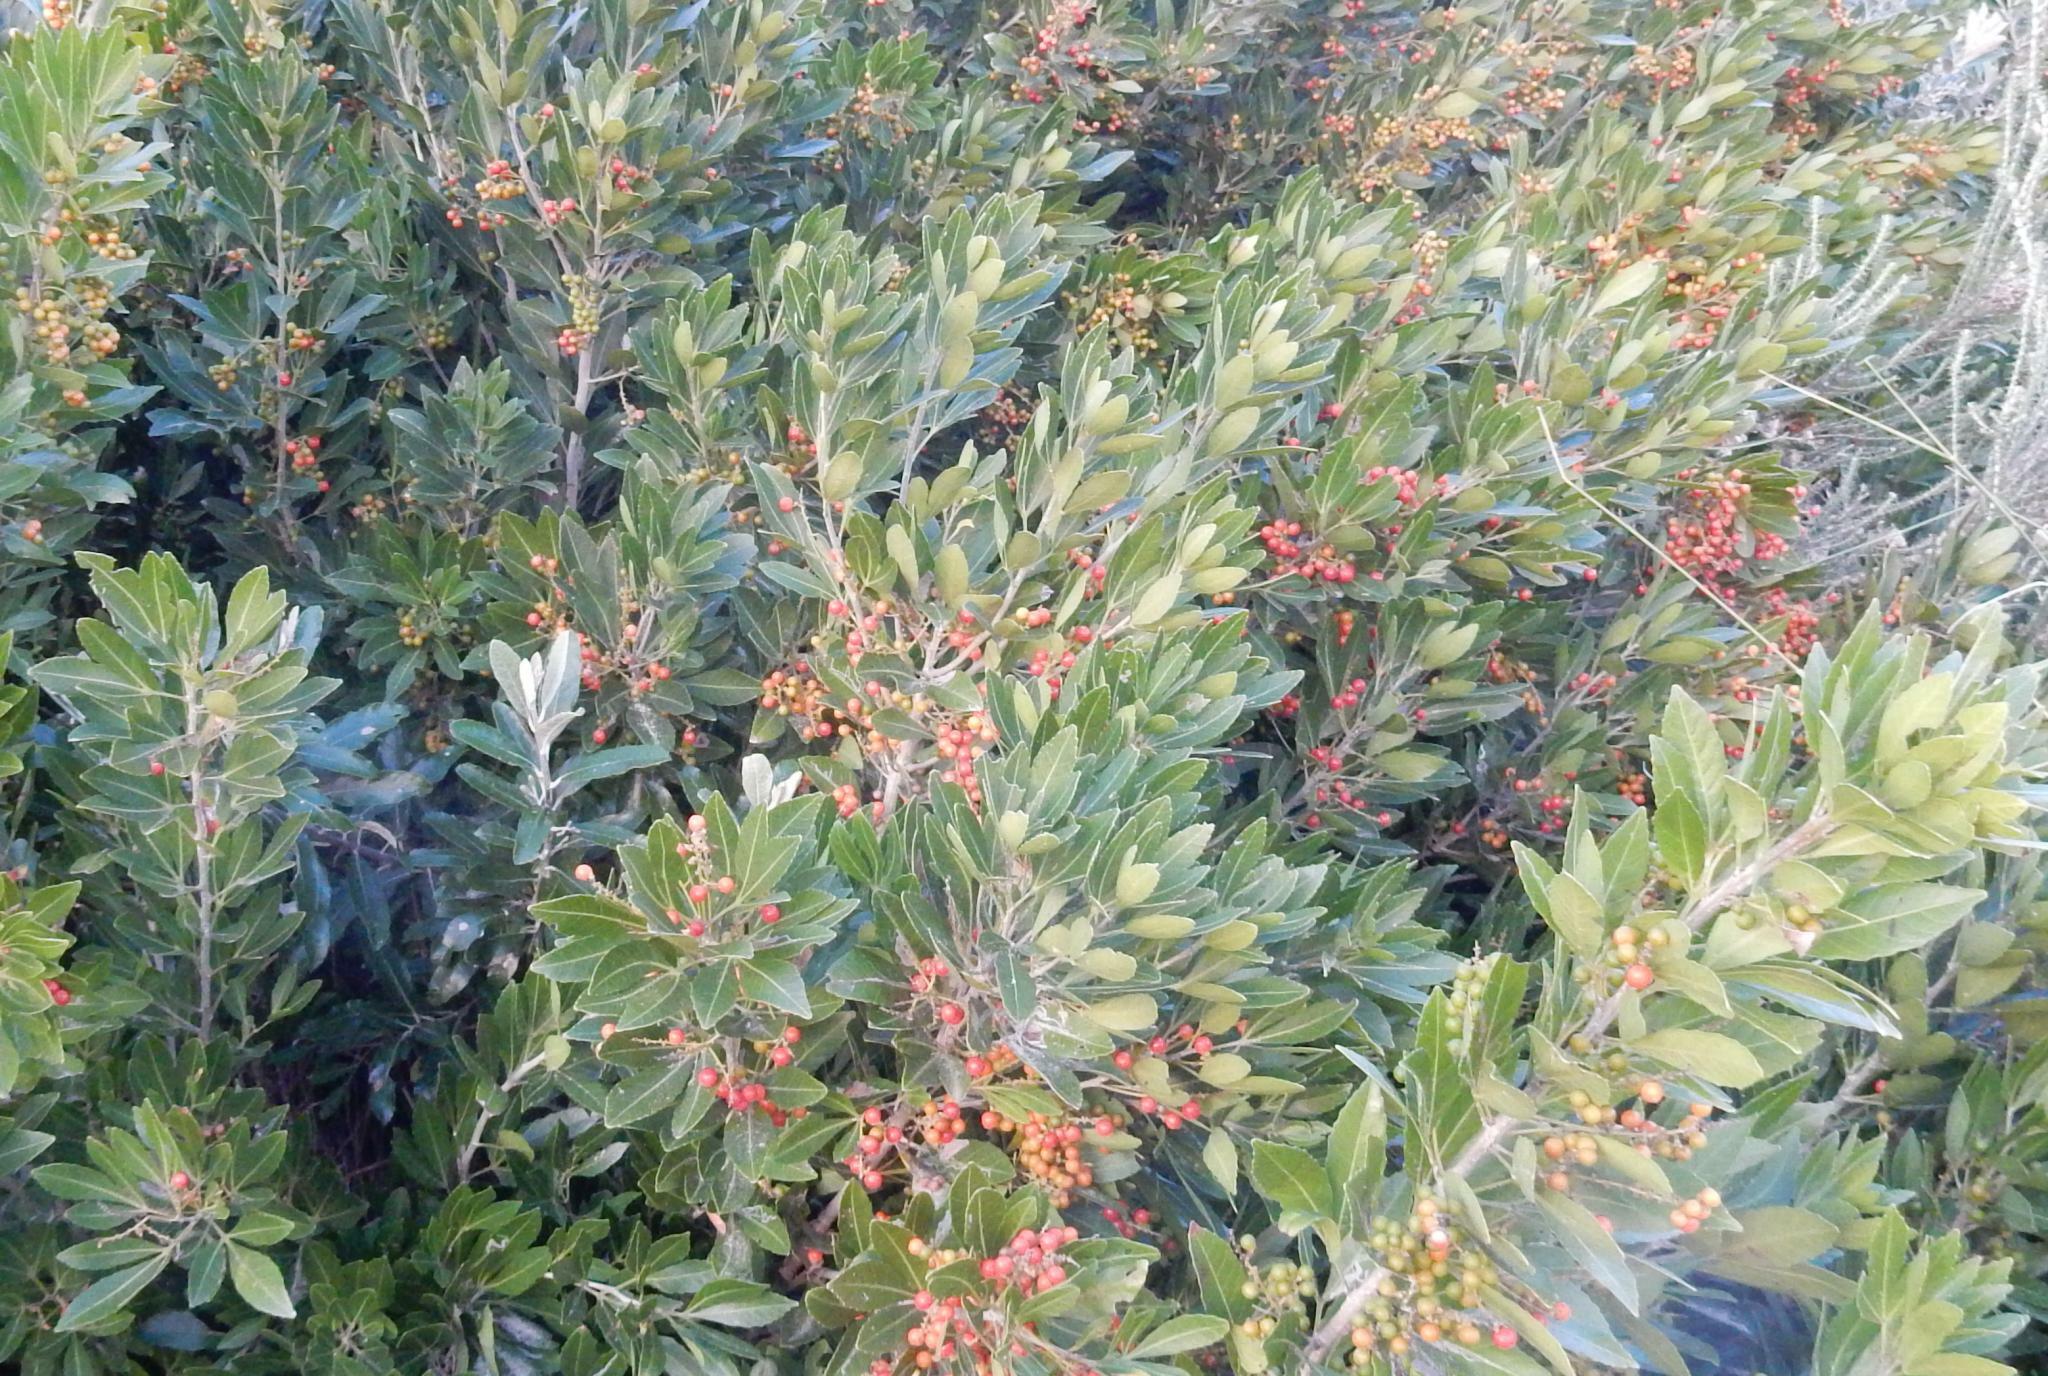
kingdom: Plantae
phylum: Tracheophyta
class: Magnoliopsida
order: Sapindales
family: Sapindaceae
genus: Allophylus
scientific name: Allophylus natalensis
